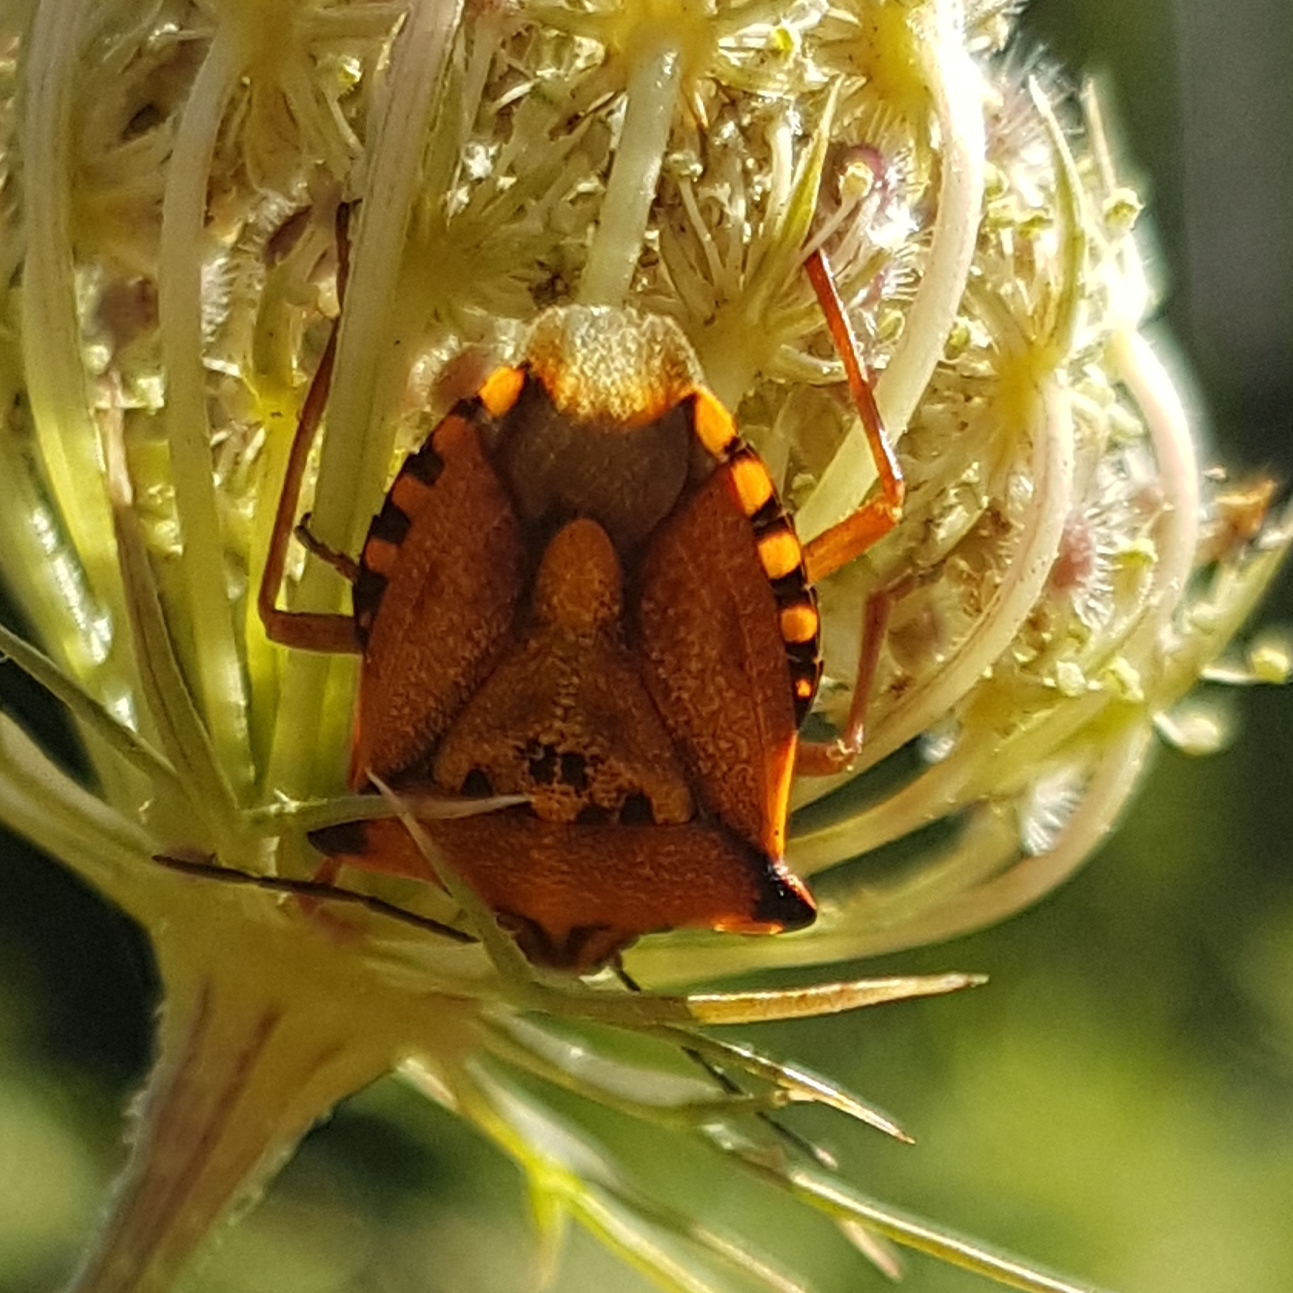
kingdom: Animalia
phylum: Arthropoda
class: Insecta
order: Hemiptera
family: Pentatomidae
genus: Carpocoris
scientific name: Carpocoris mediterraneus
